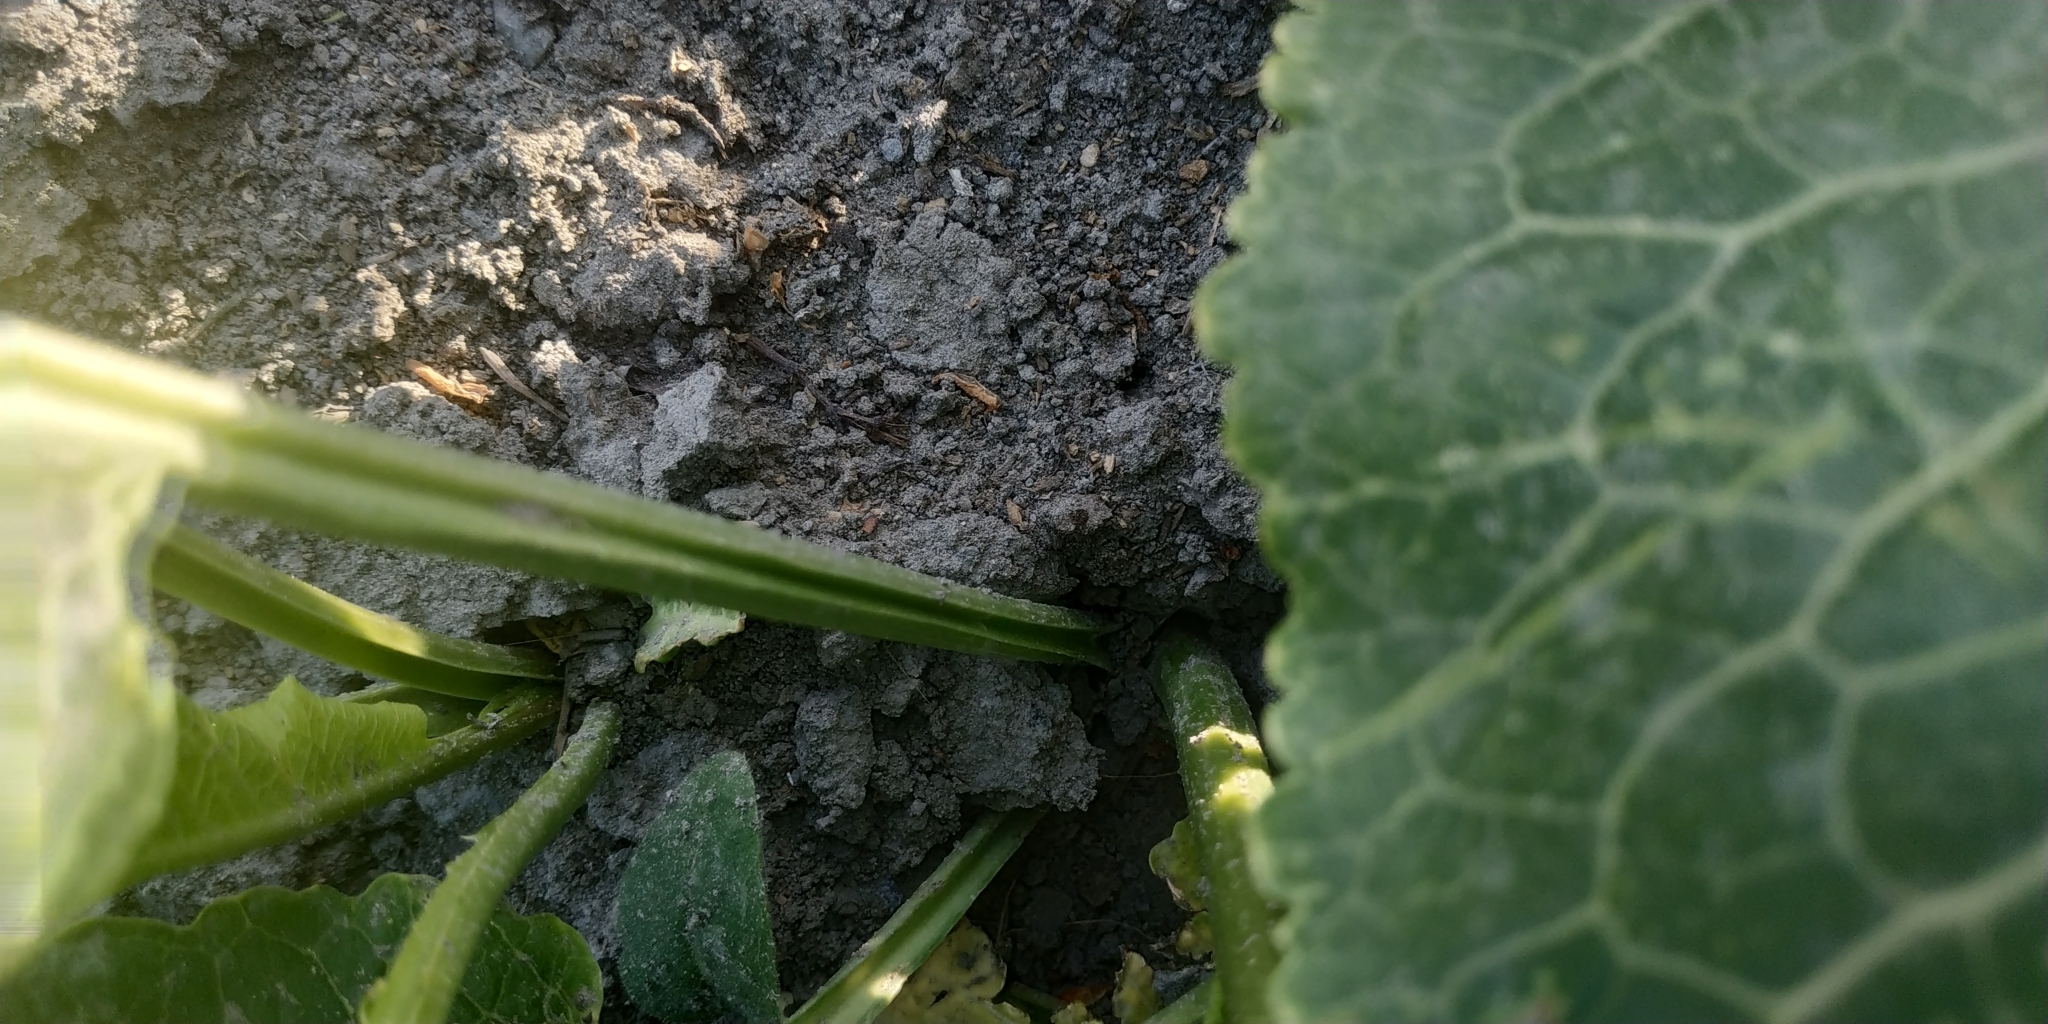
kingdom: Plantae
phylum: Tracheophyta
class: Magnoliopsida
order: Brassicales
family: Brassicaceae
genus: Armoracia
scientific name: Armoracia rusticana
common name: Horseradish
